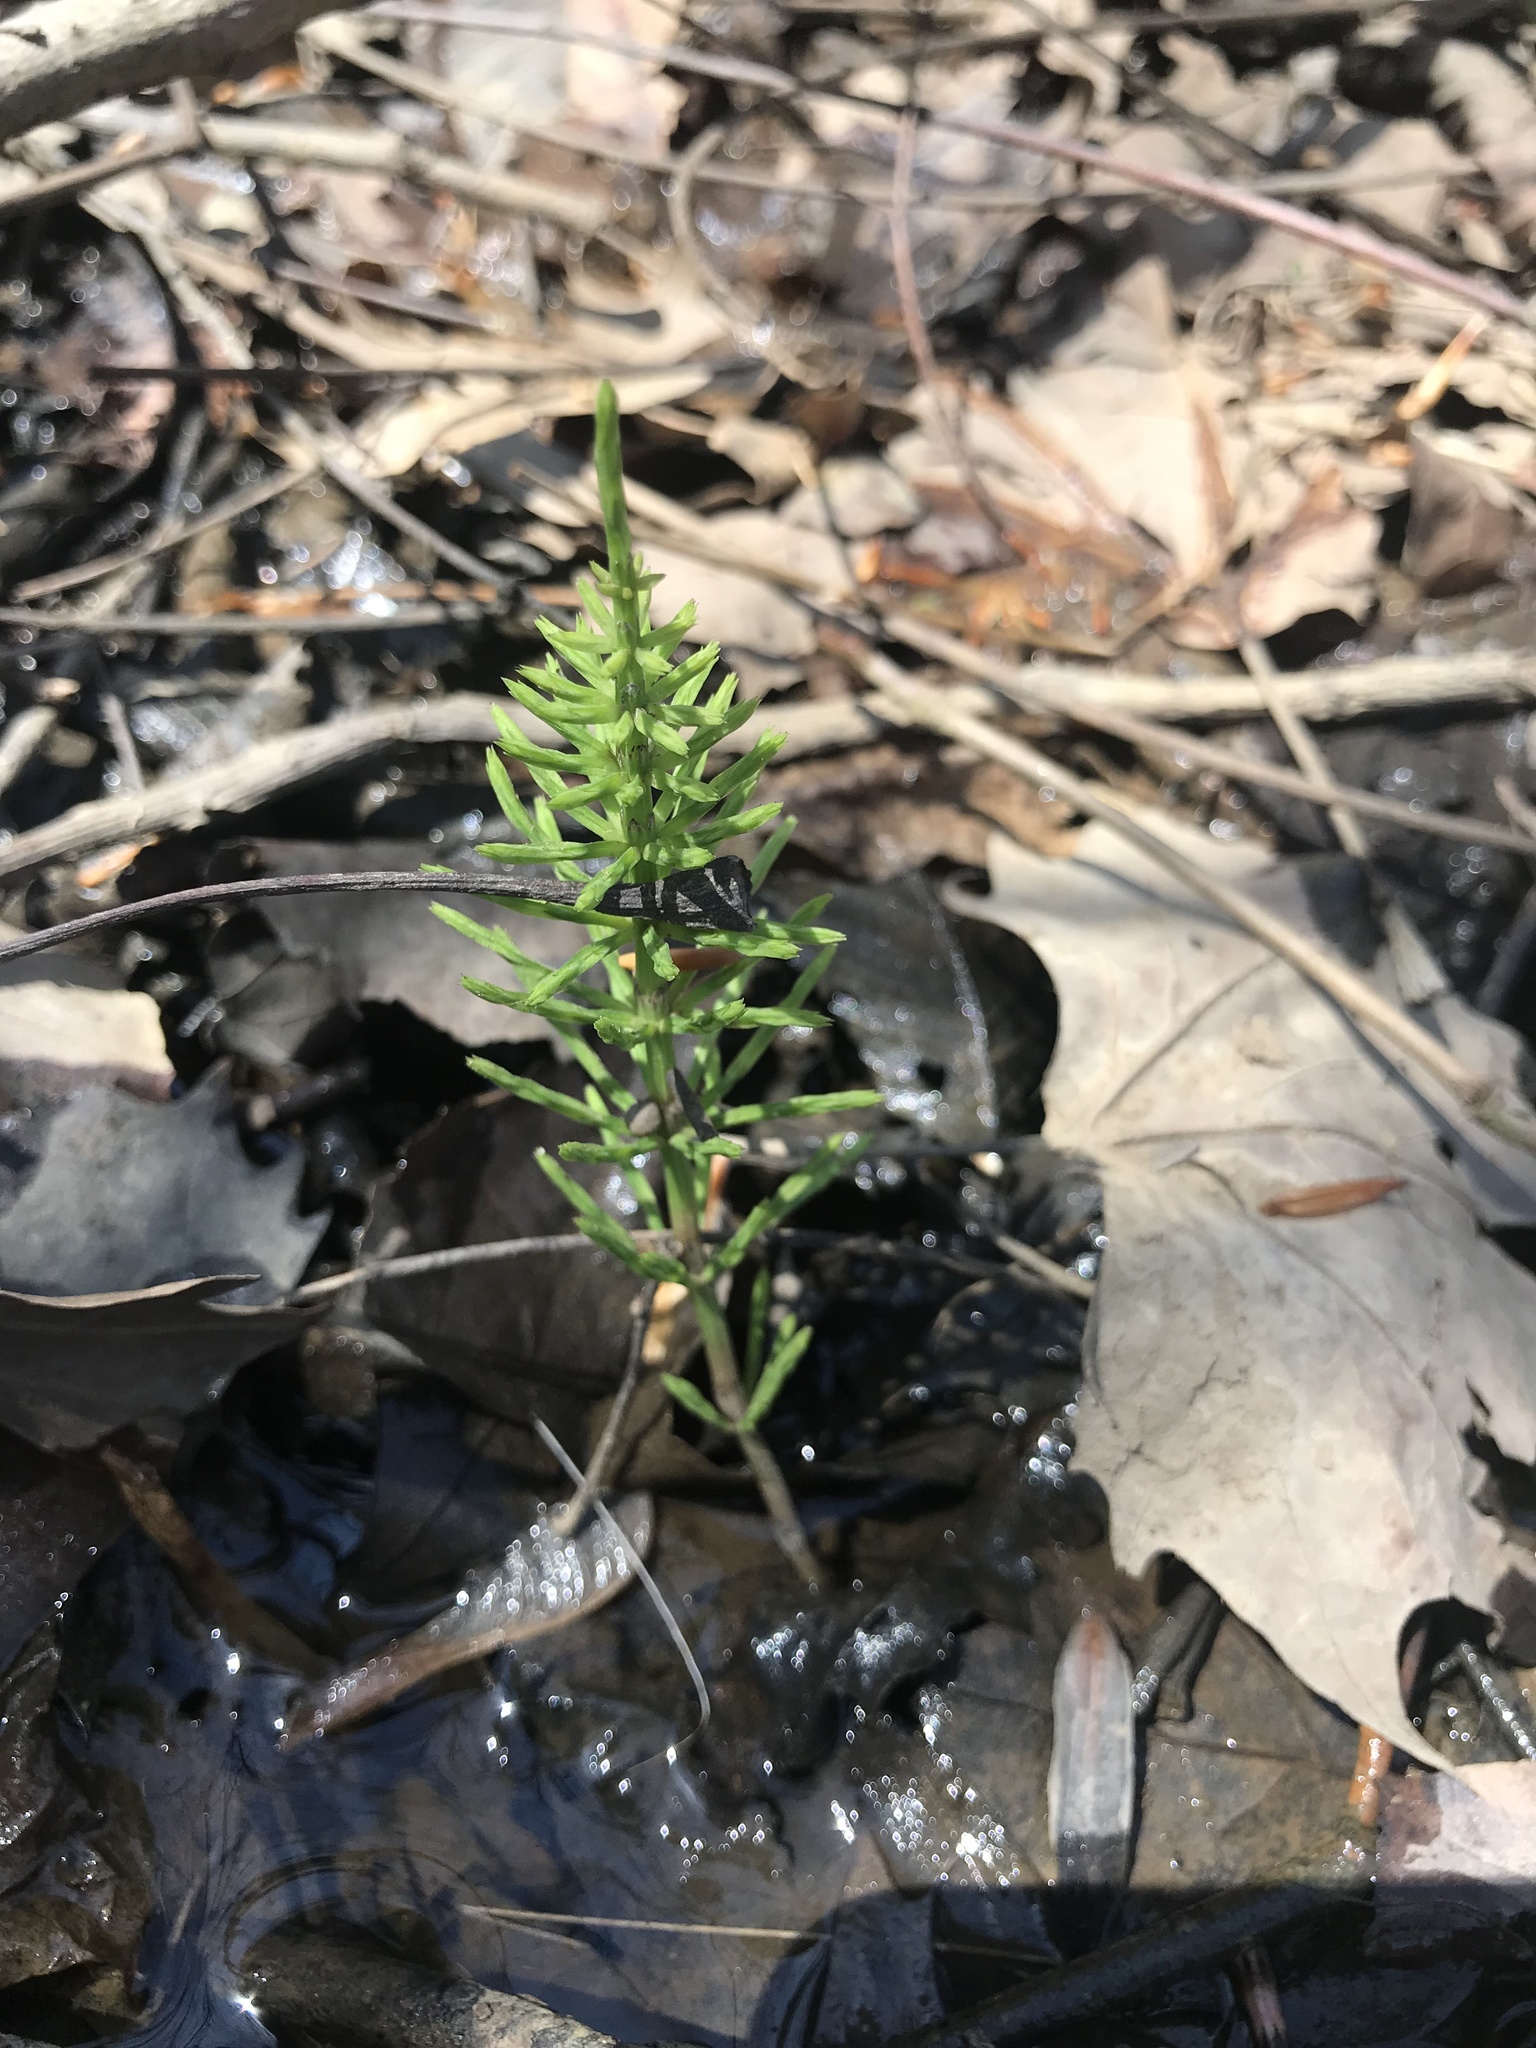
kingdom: Plantae
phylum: Tracheophyta
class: Polypodiopsida
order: Equisetales
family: Equisetaceae
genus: Equisetum
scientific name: Equisetum arvense
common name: Field horsetail
